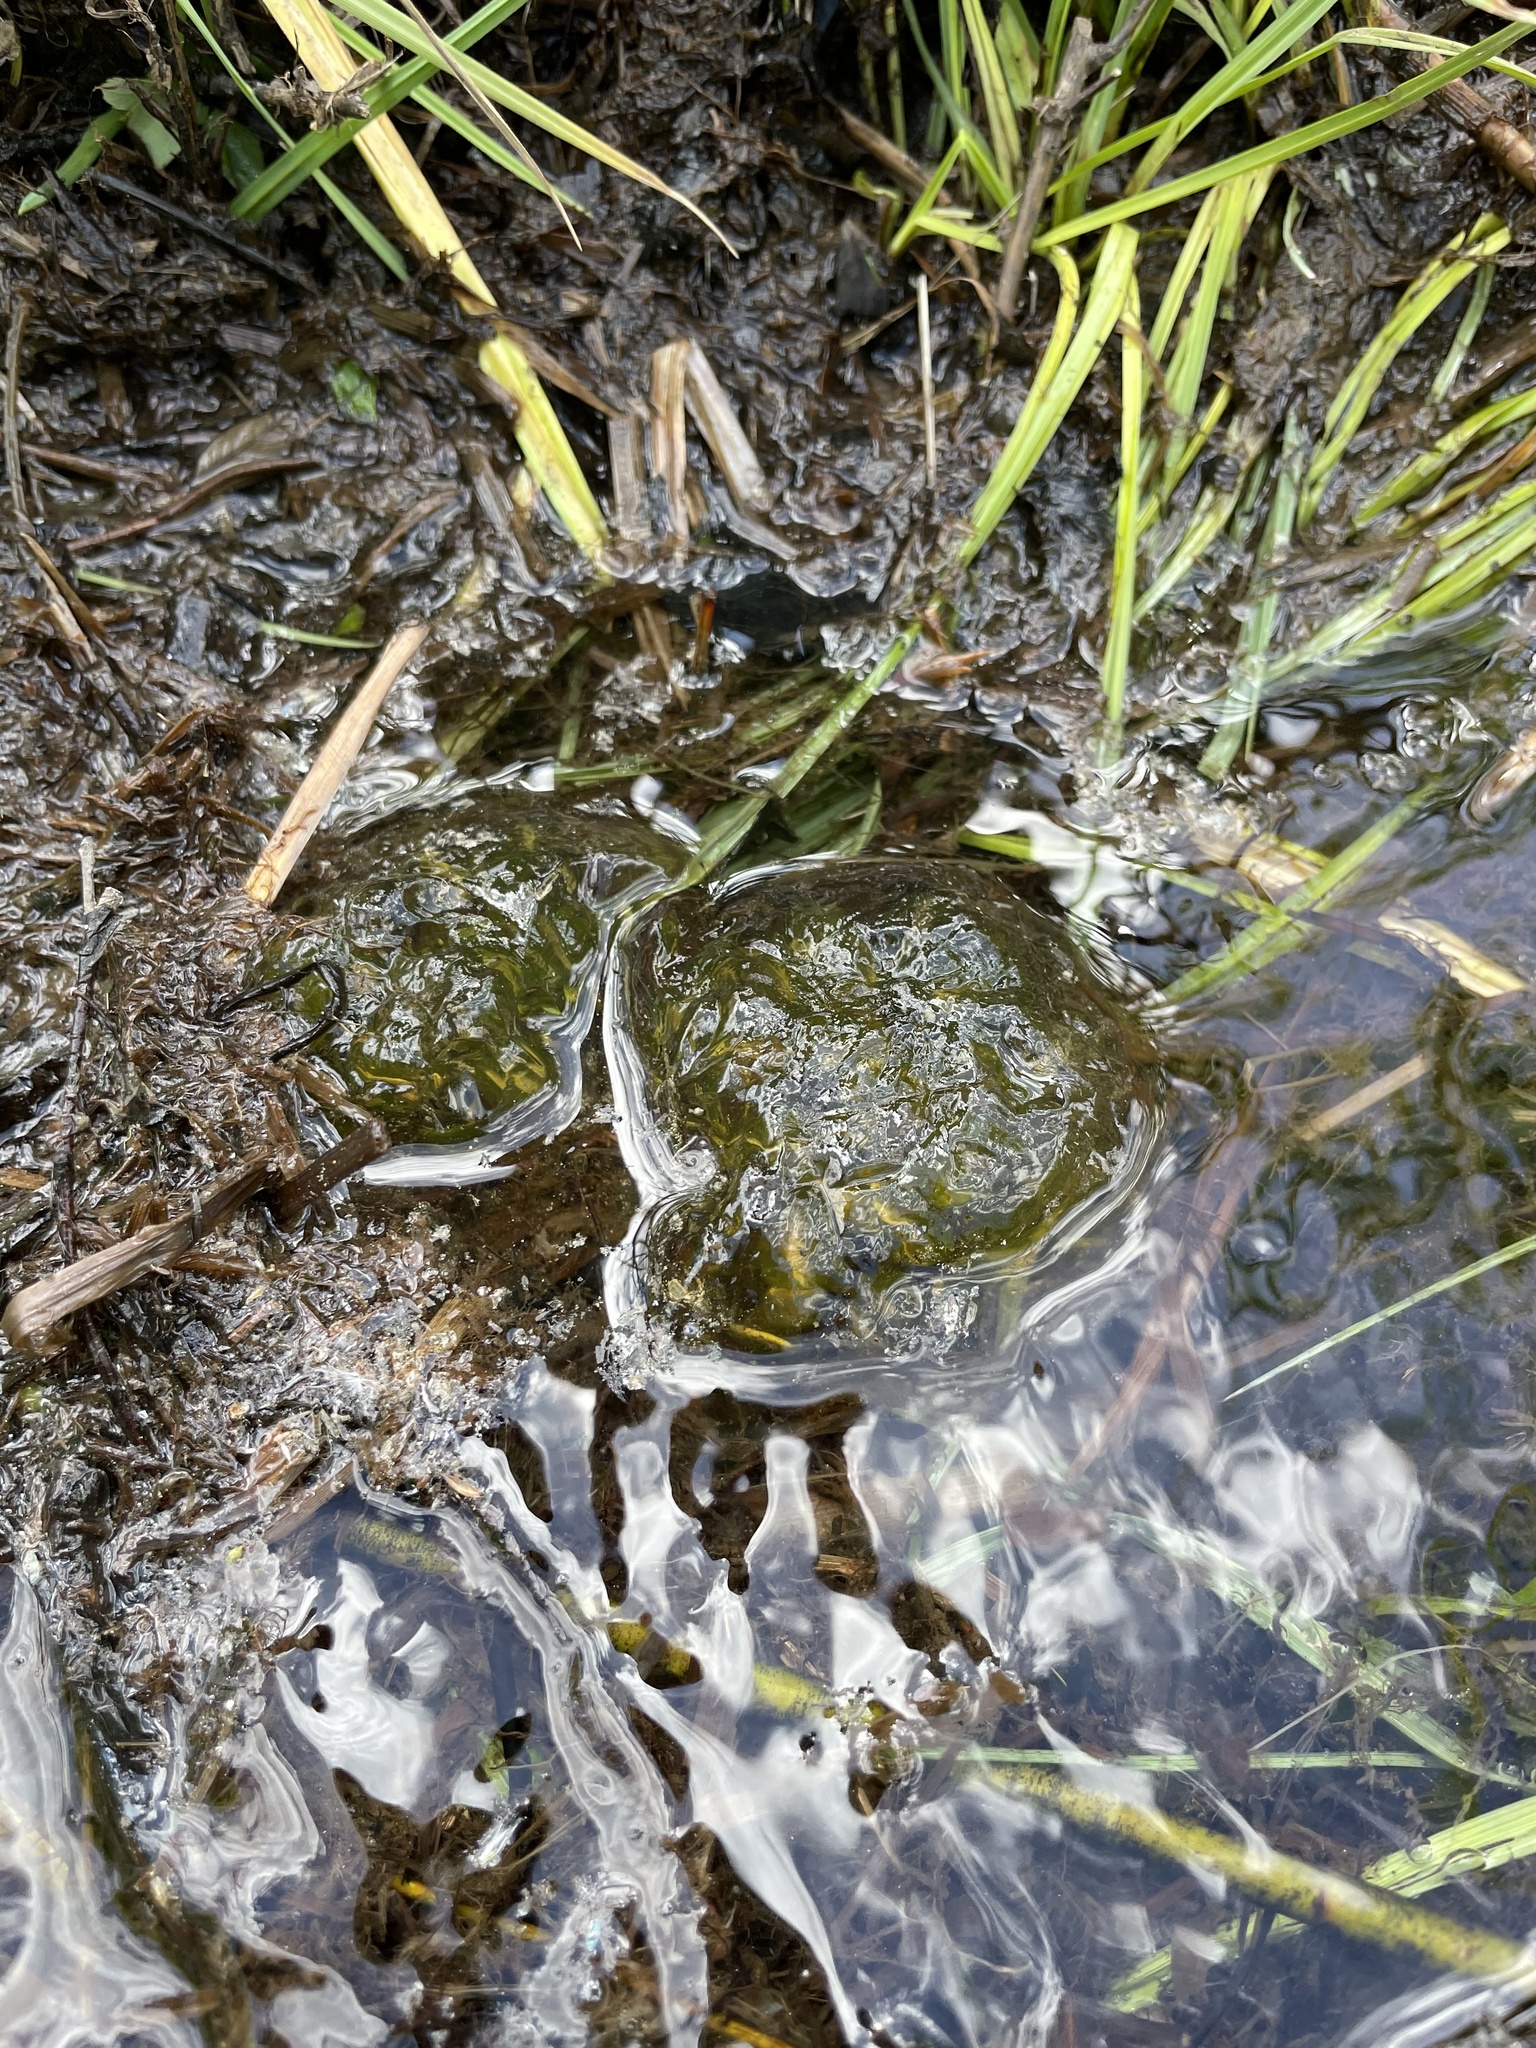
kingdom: Animalia
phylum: Chordata
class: Amphibia
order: Caudata
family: Ambystomatidae
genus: Ambystoma
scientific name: Ambystoma gracile
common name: Northwestern salamander
